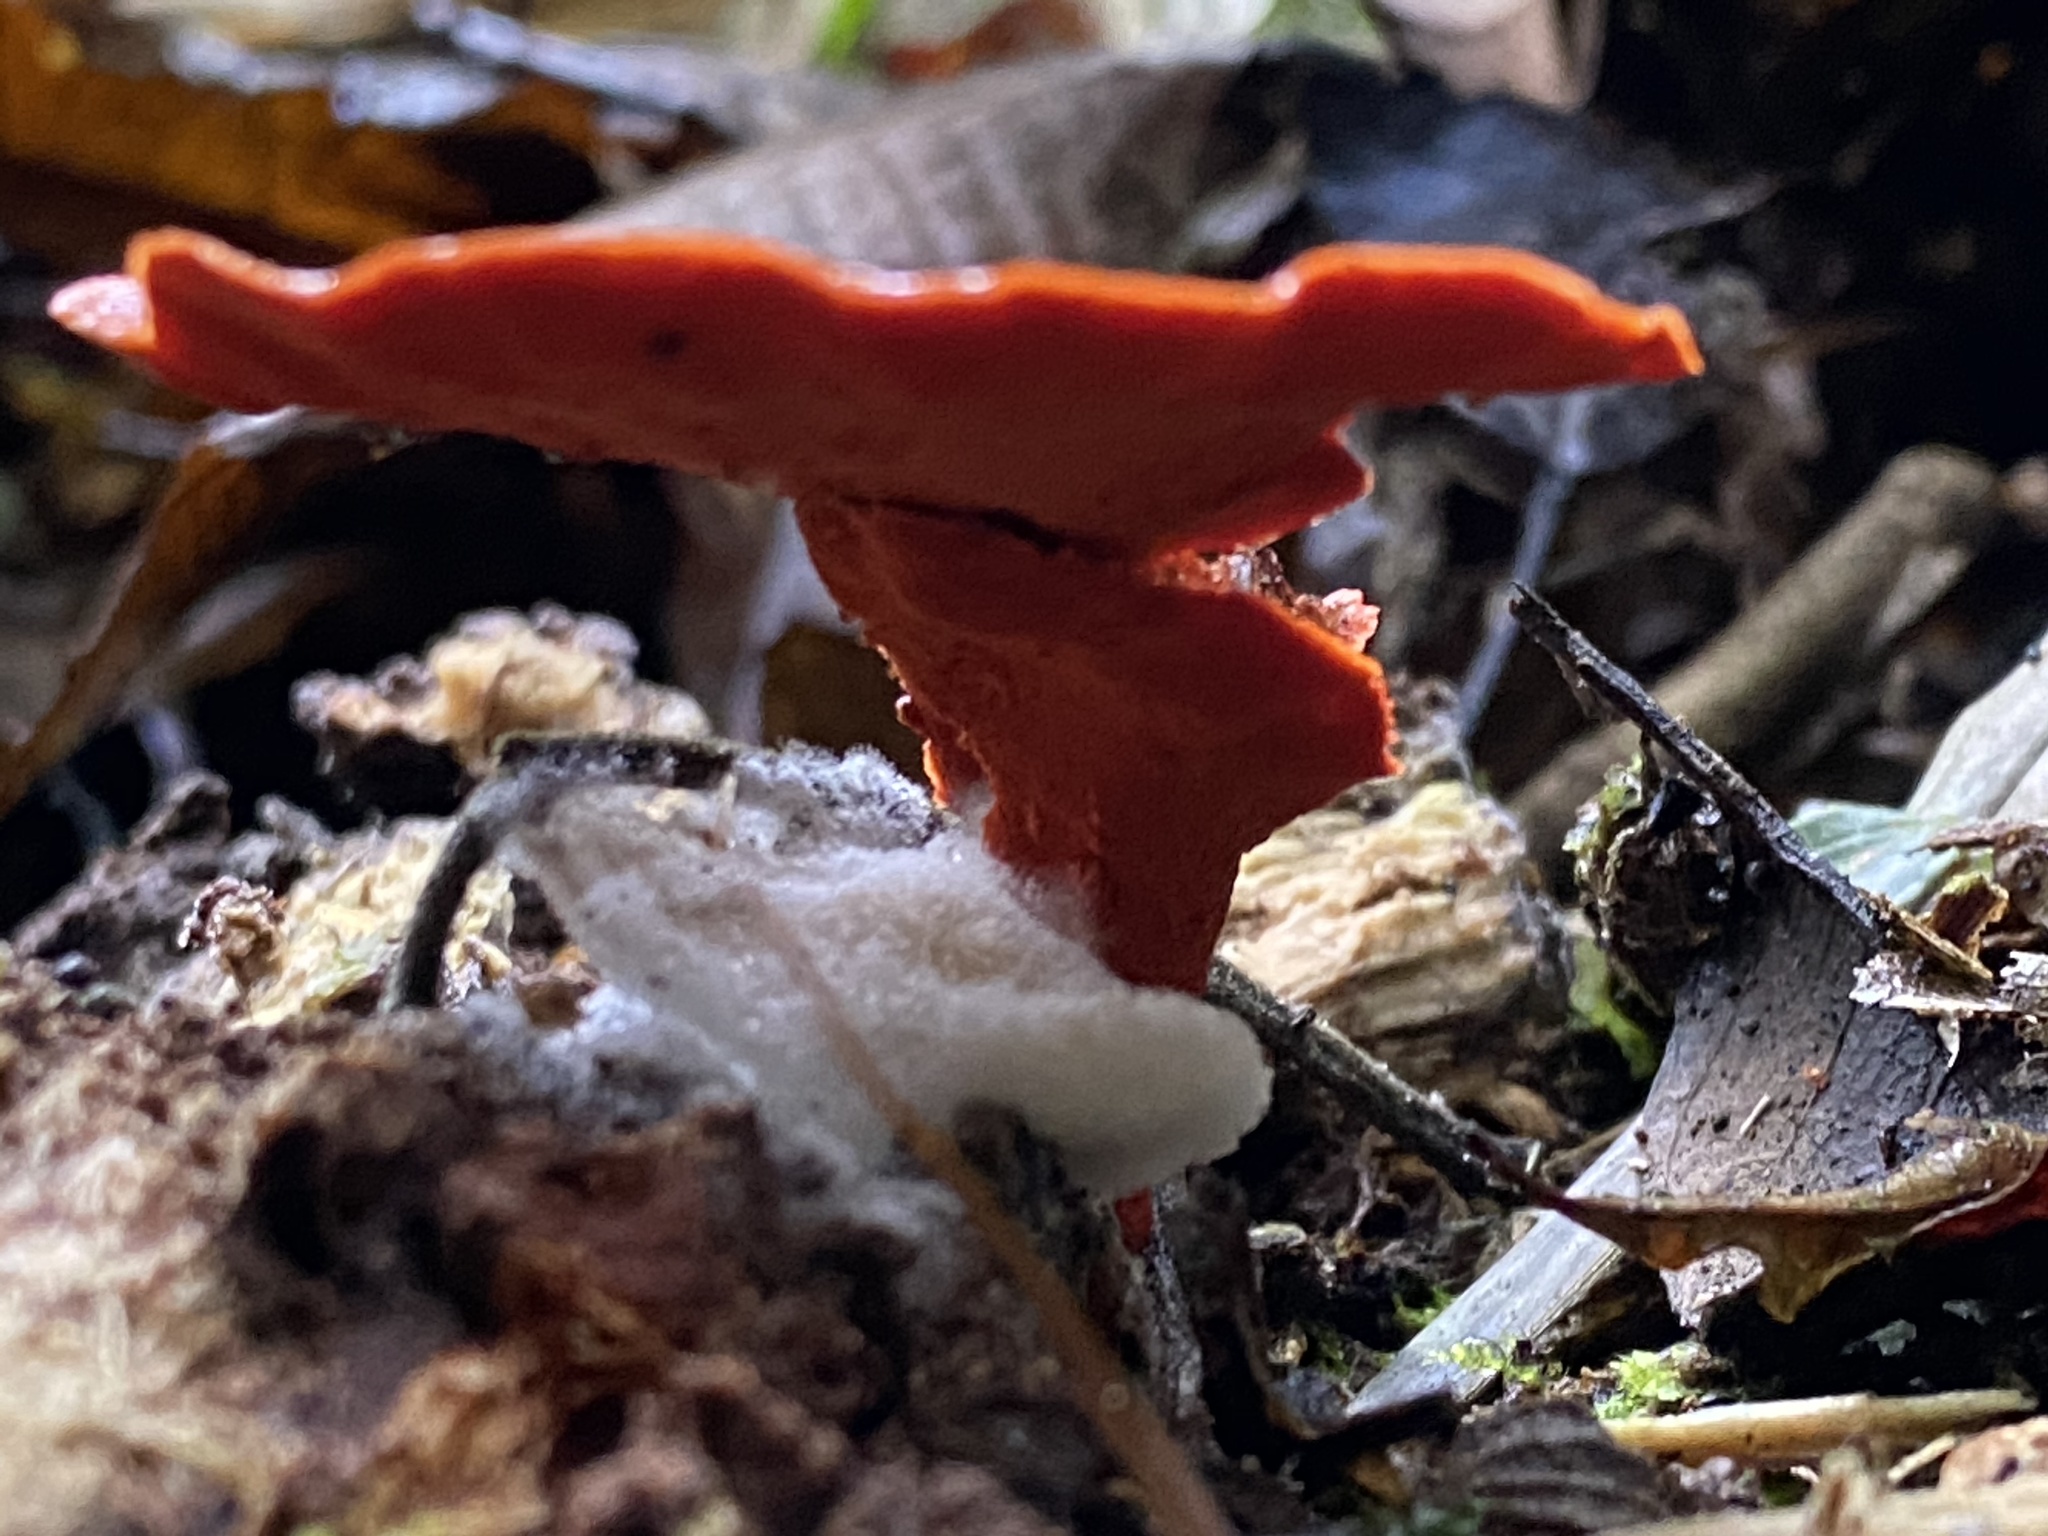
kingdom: Fungi
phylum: Basidiomycota
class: Agaricomycetes
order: Polyporales
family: Polyporaceae
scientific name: Polyporaceae
